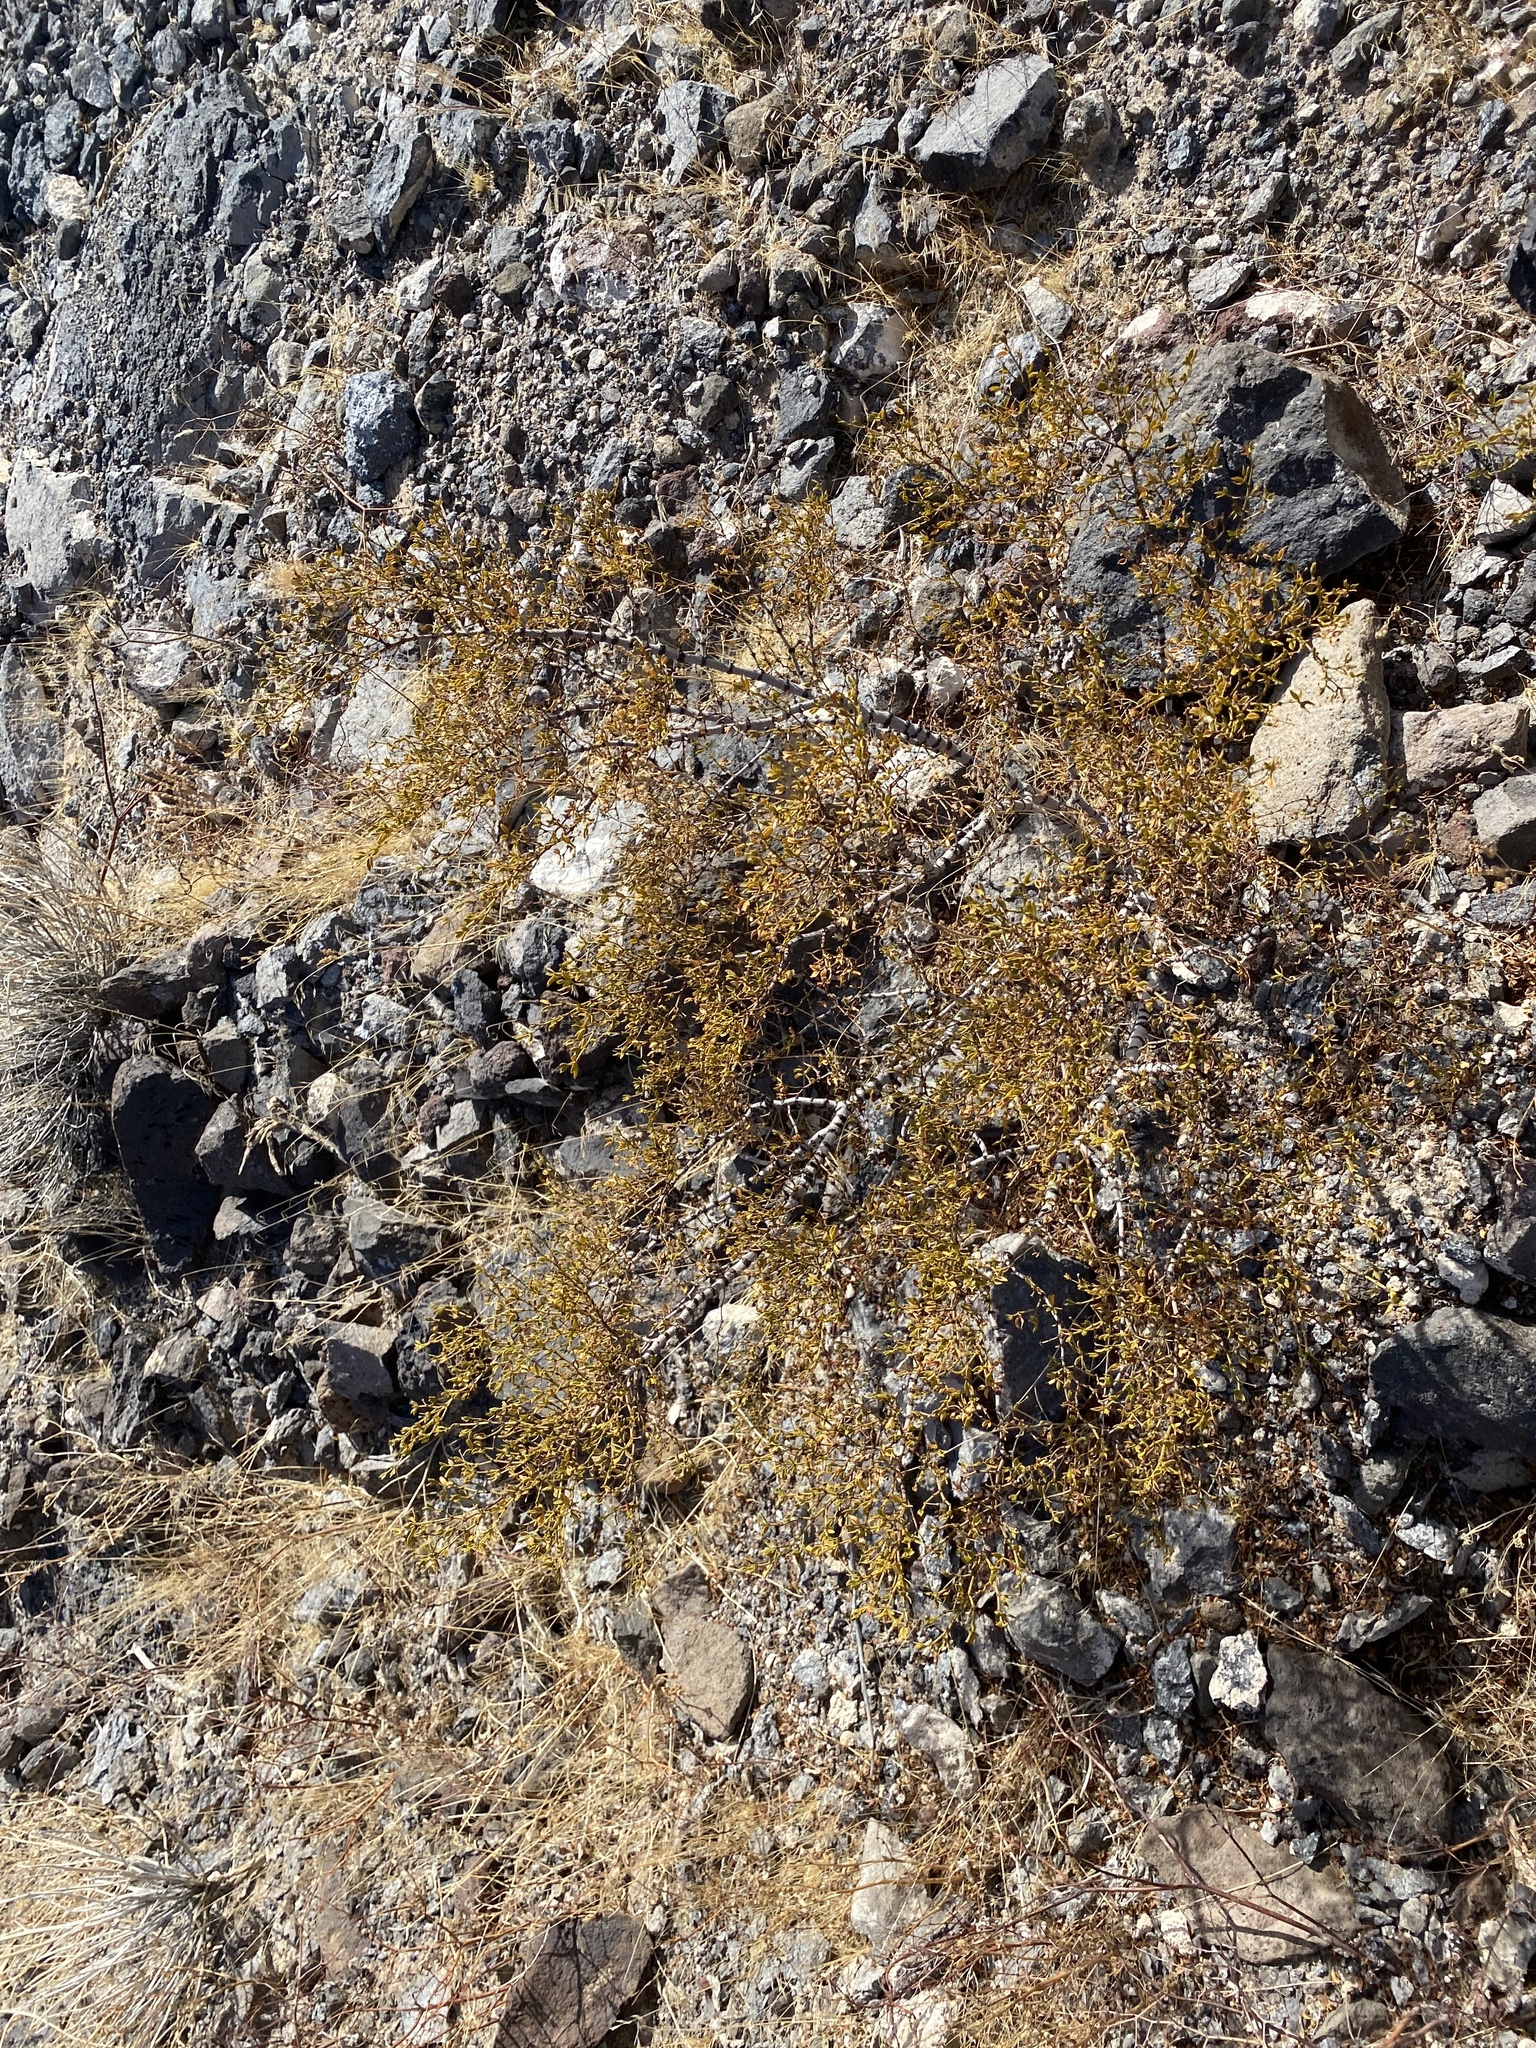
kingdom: Plantae
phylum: Tracheophyta
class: Magnoliopsida
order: Zygophyllales
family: Zygophyllaceae
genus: Larrea
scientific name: Larrea tridentata
